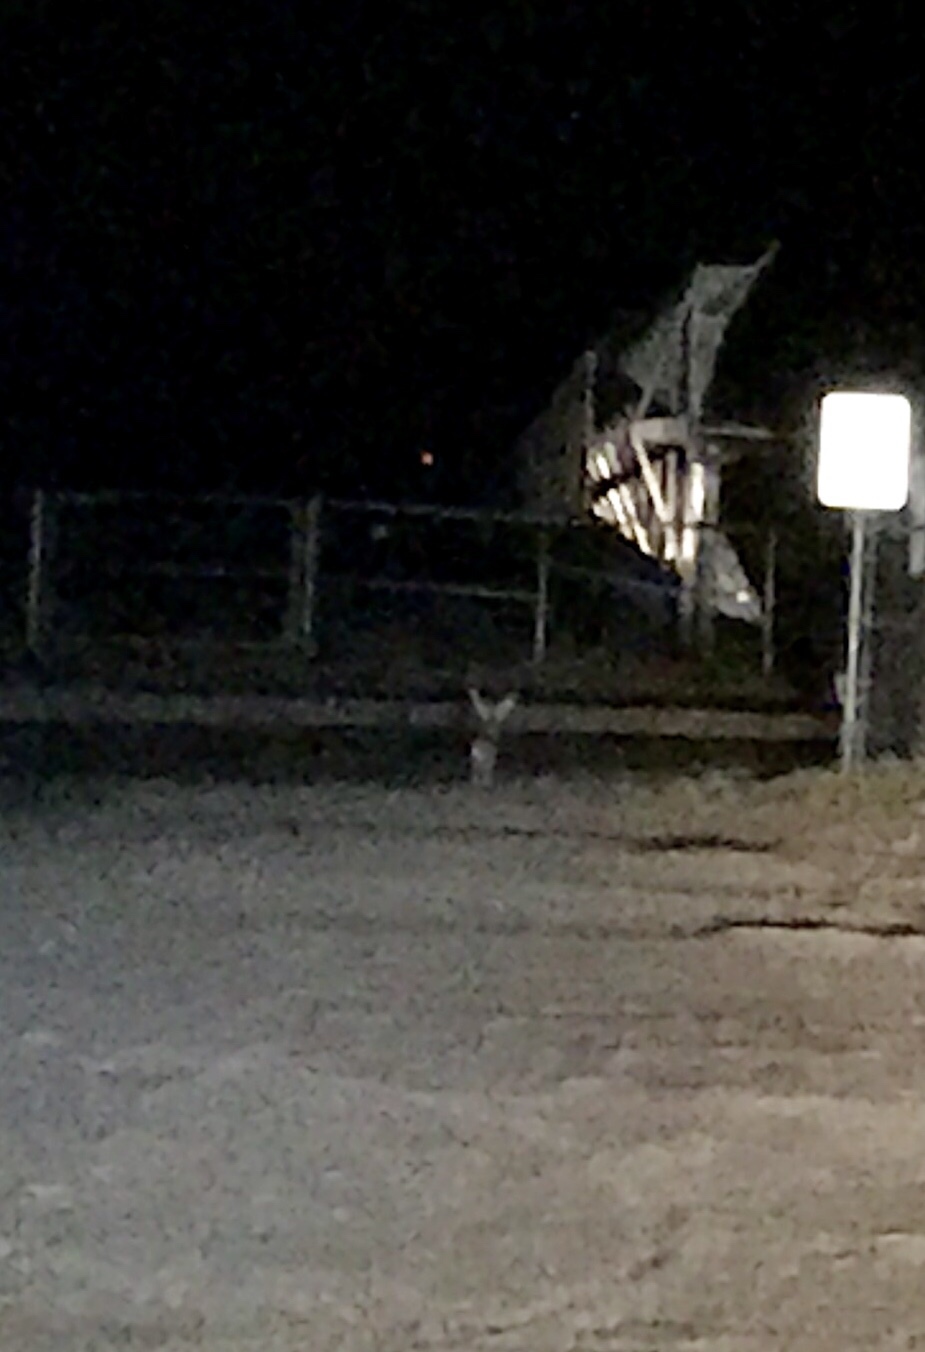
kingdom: Animalia
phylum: Chordata
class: Mammalia
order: Lagomorpha
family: Leporidae
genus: Lepus
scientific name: Lepus californicus
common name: Black-tailed jackrabbit
